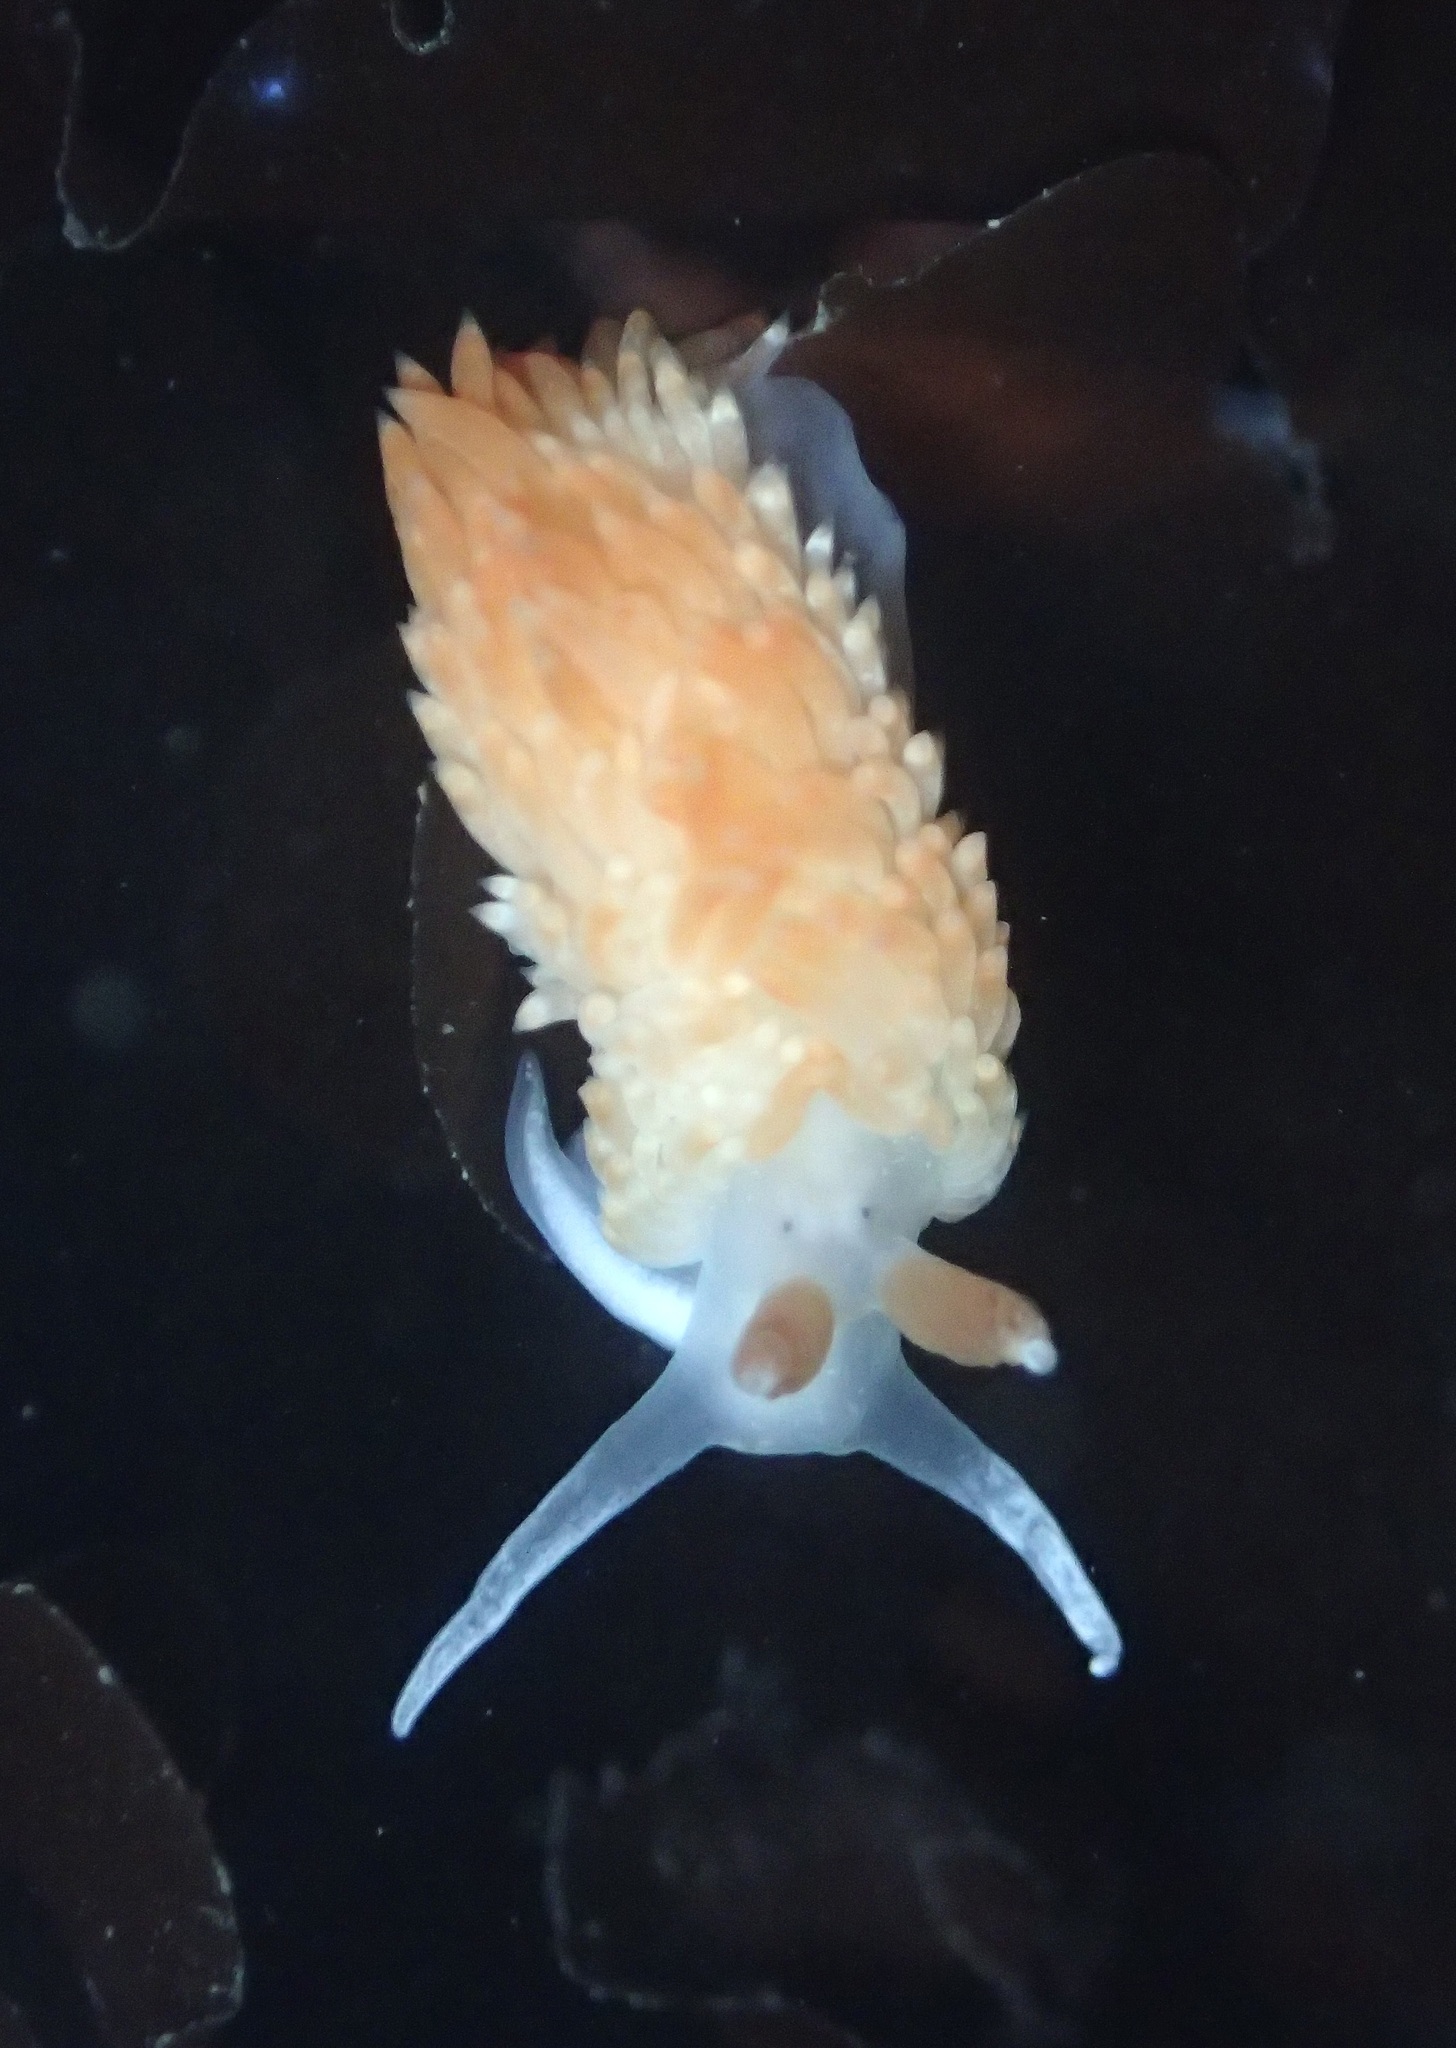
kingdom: Animalia
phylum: Mollusca
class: Gastropoda
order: Nudibranchia
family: Aeolidiidae
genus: Anteaeolidiella
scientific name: Anteaeolidiella oliviae
